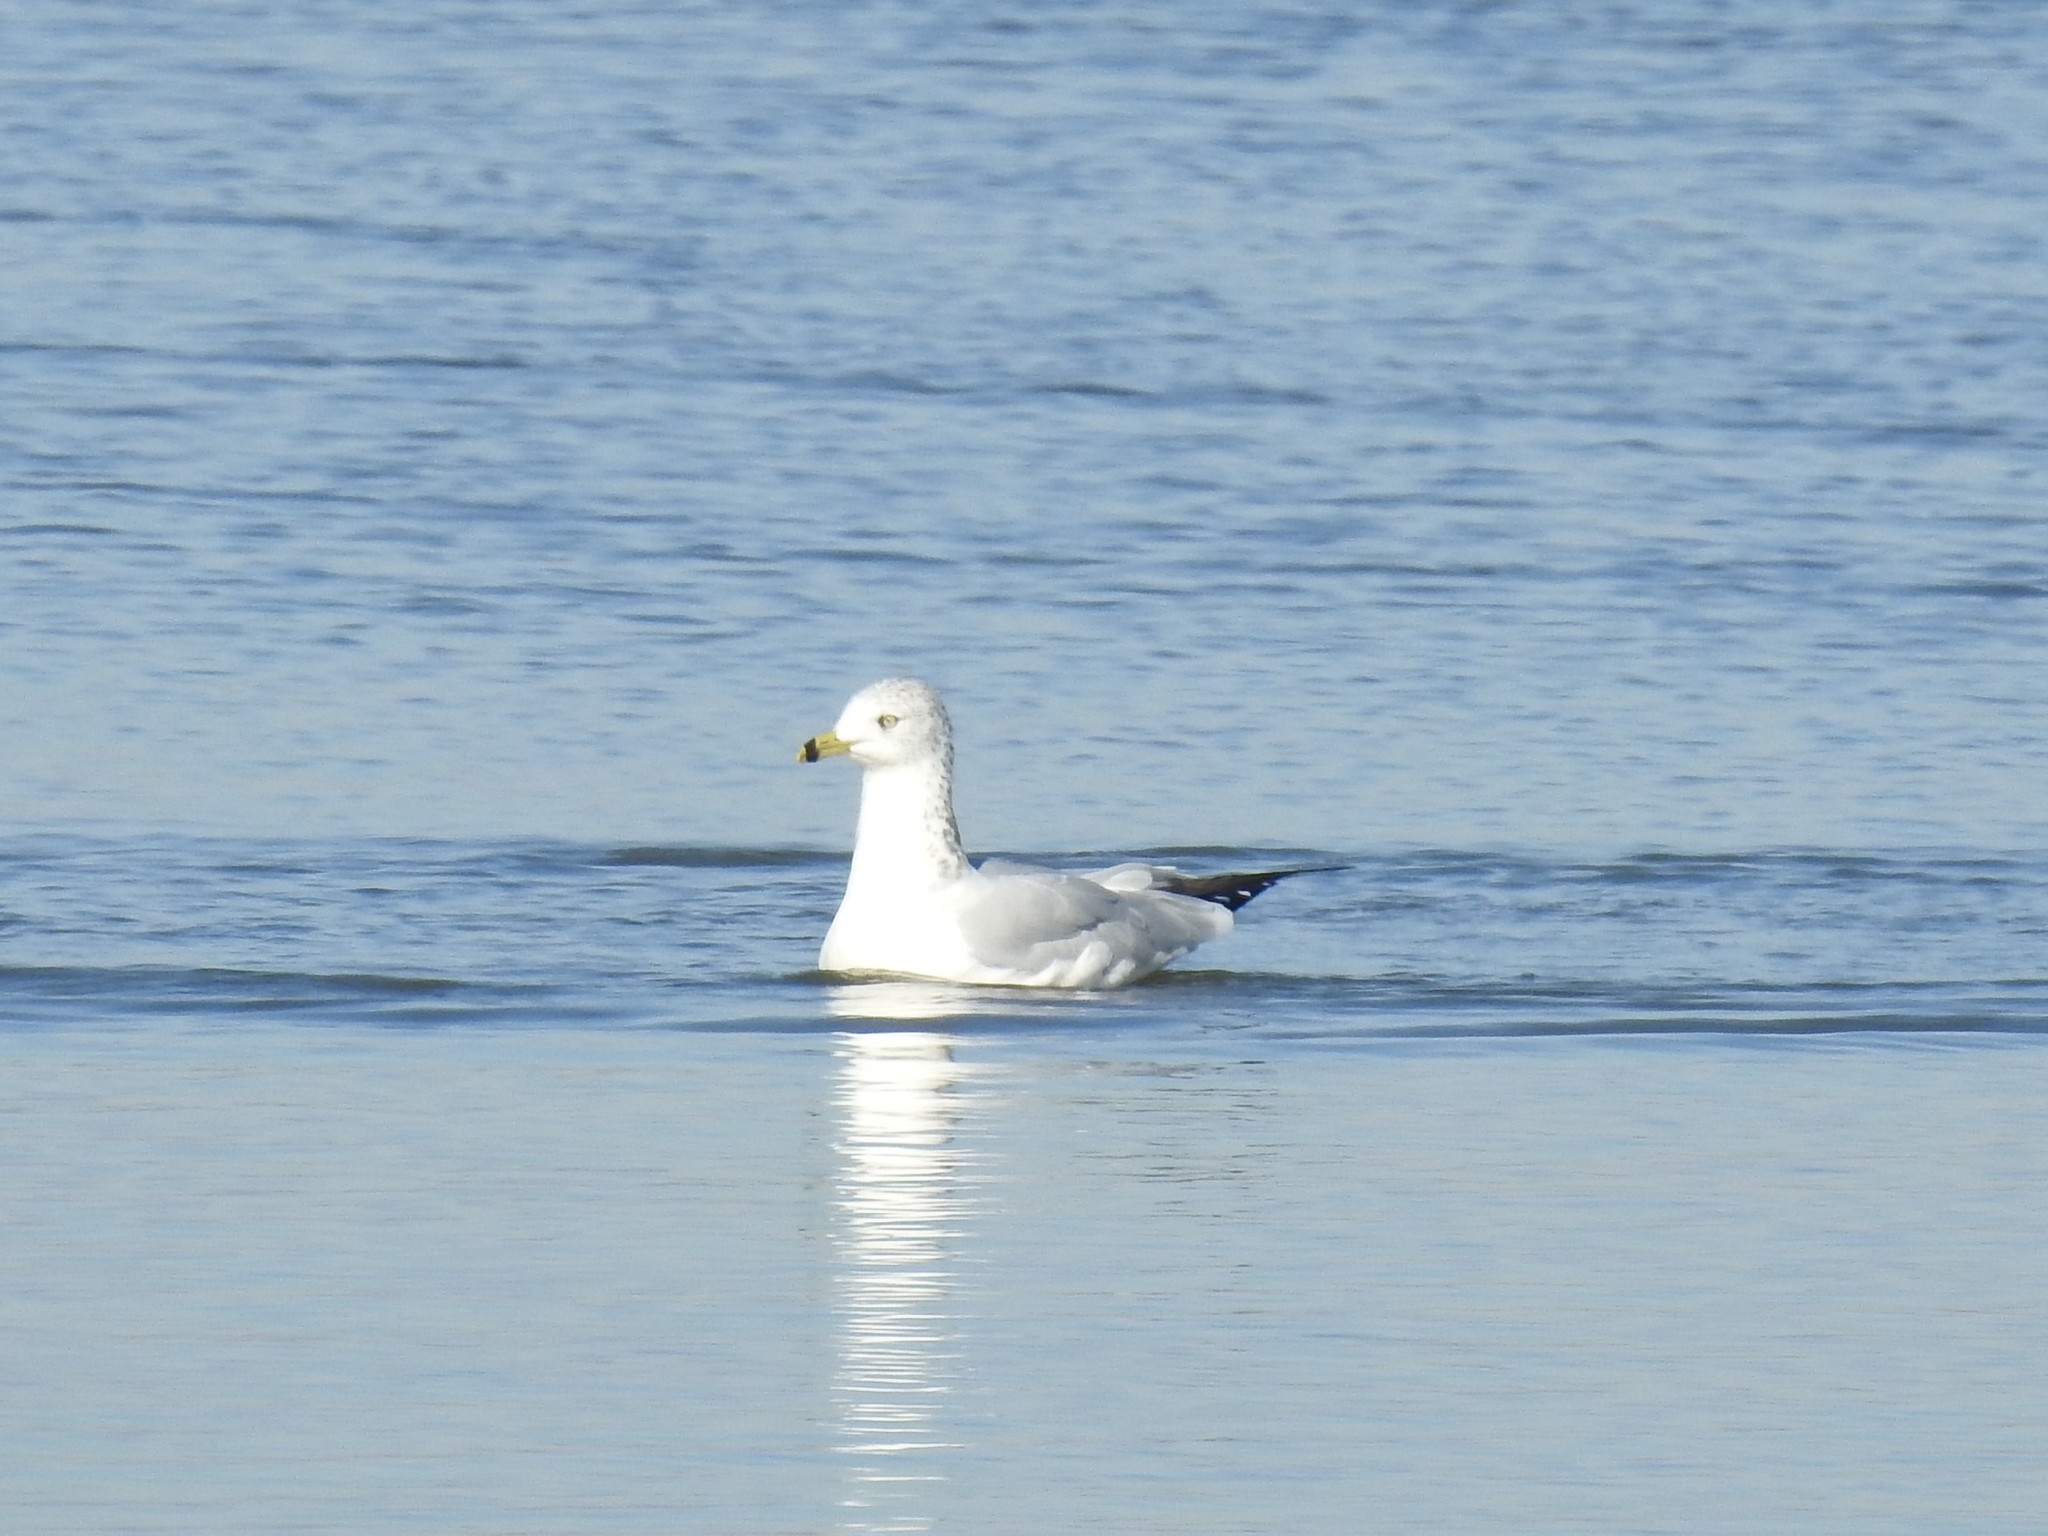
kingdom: Animalia
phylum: Chordata
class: Aves
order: Charadriiformes
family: Laridae
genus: Larus
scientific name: Larus delawarensis
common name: Ring-billed gull
